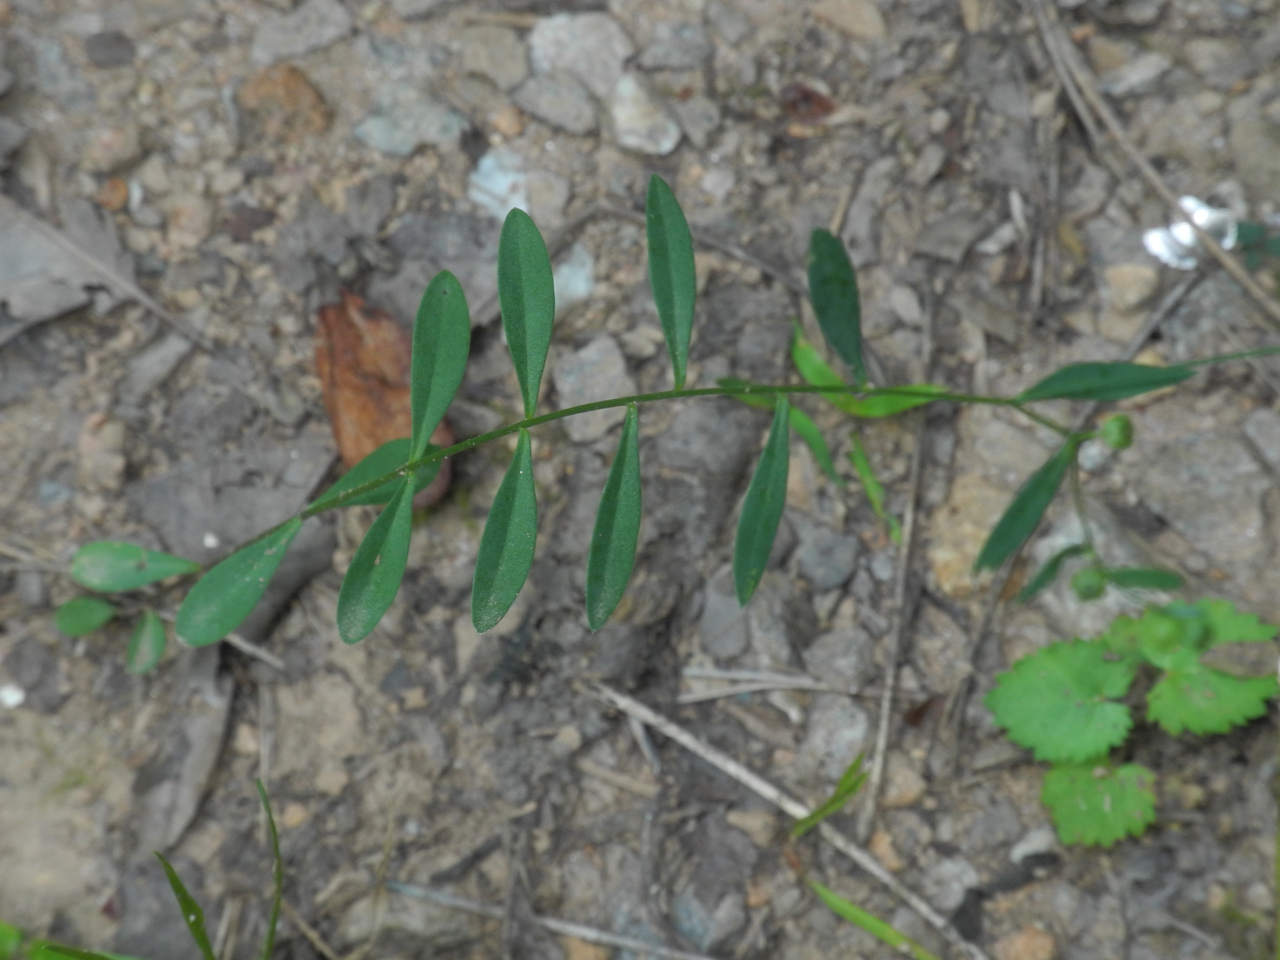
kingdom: Plantae
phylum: Tracheophyta
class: Magnoliopsida
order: Malpighiales
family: Linaceae
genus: Linum
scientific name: Linum virginianum
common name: Slender yellow flax
